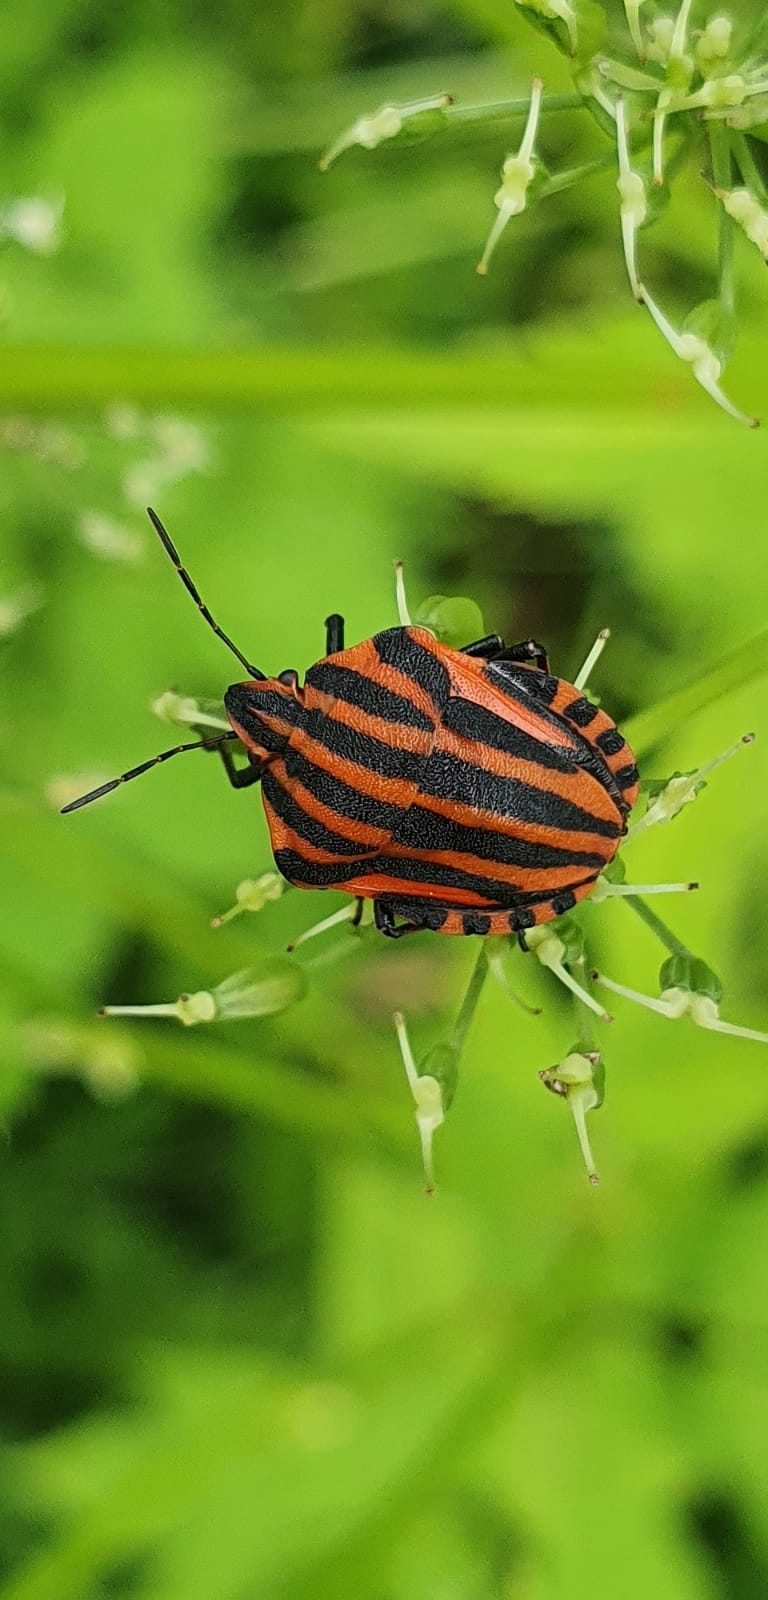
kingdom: Animalia
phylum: Arthropoda
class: Insecta
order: Hemiptera
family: Pentatomidae
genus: Graphosoma
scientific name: Graphosoma italicum
